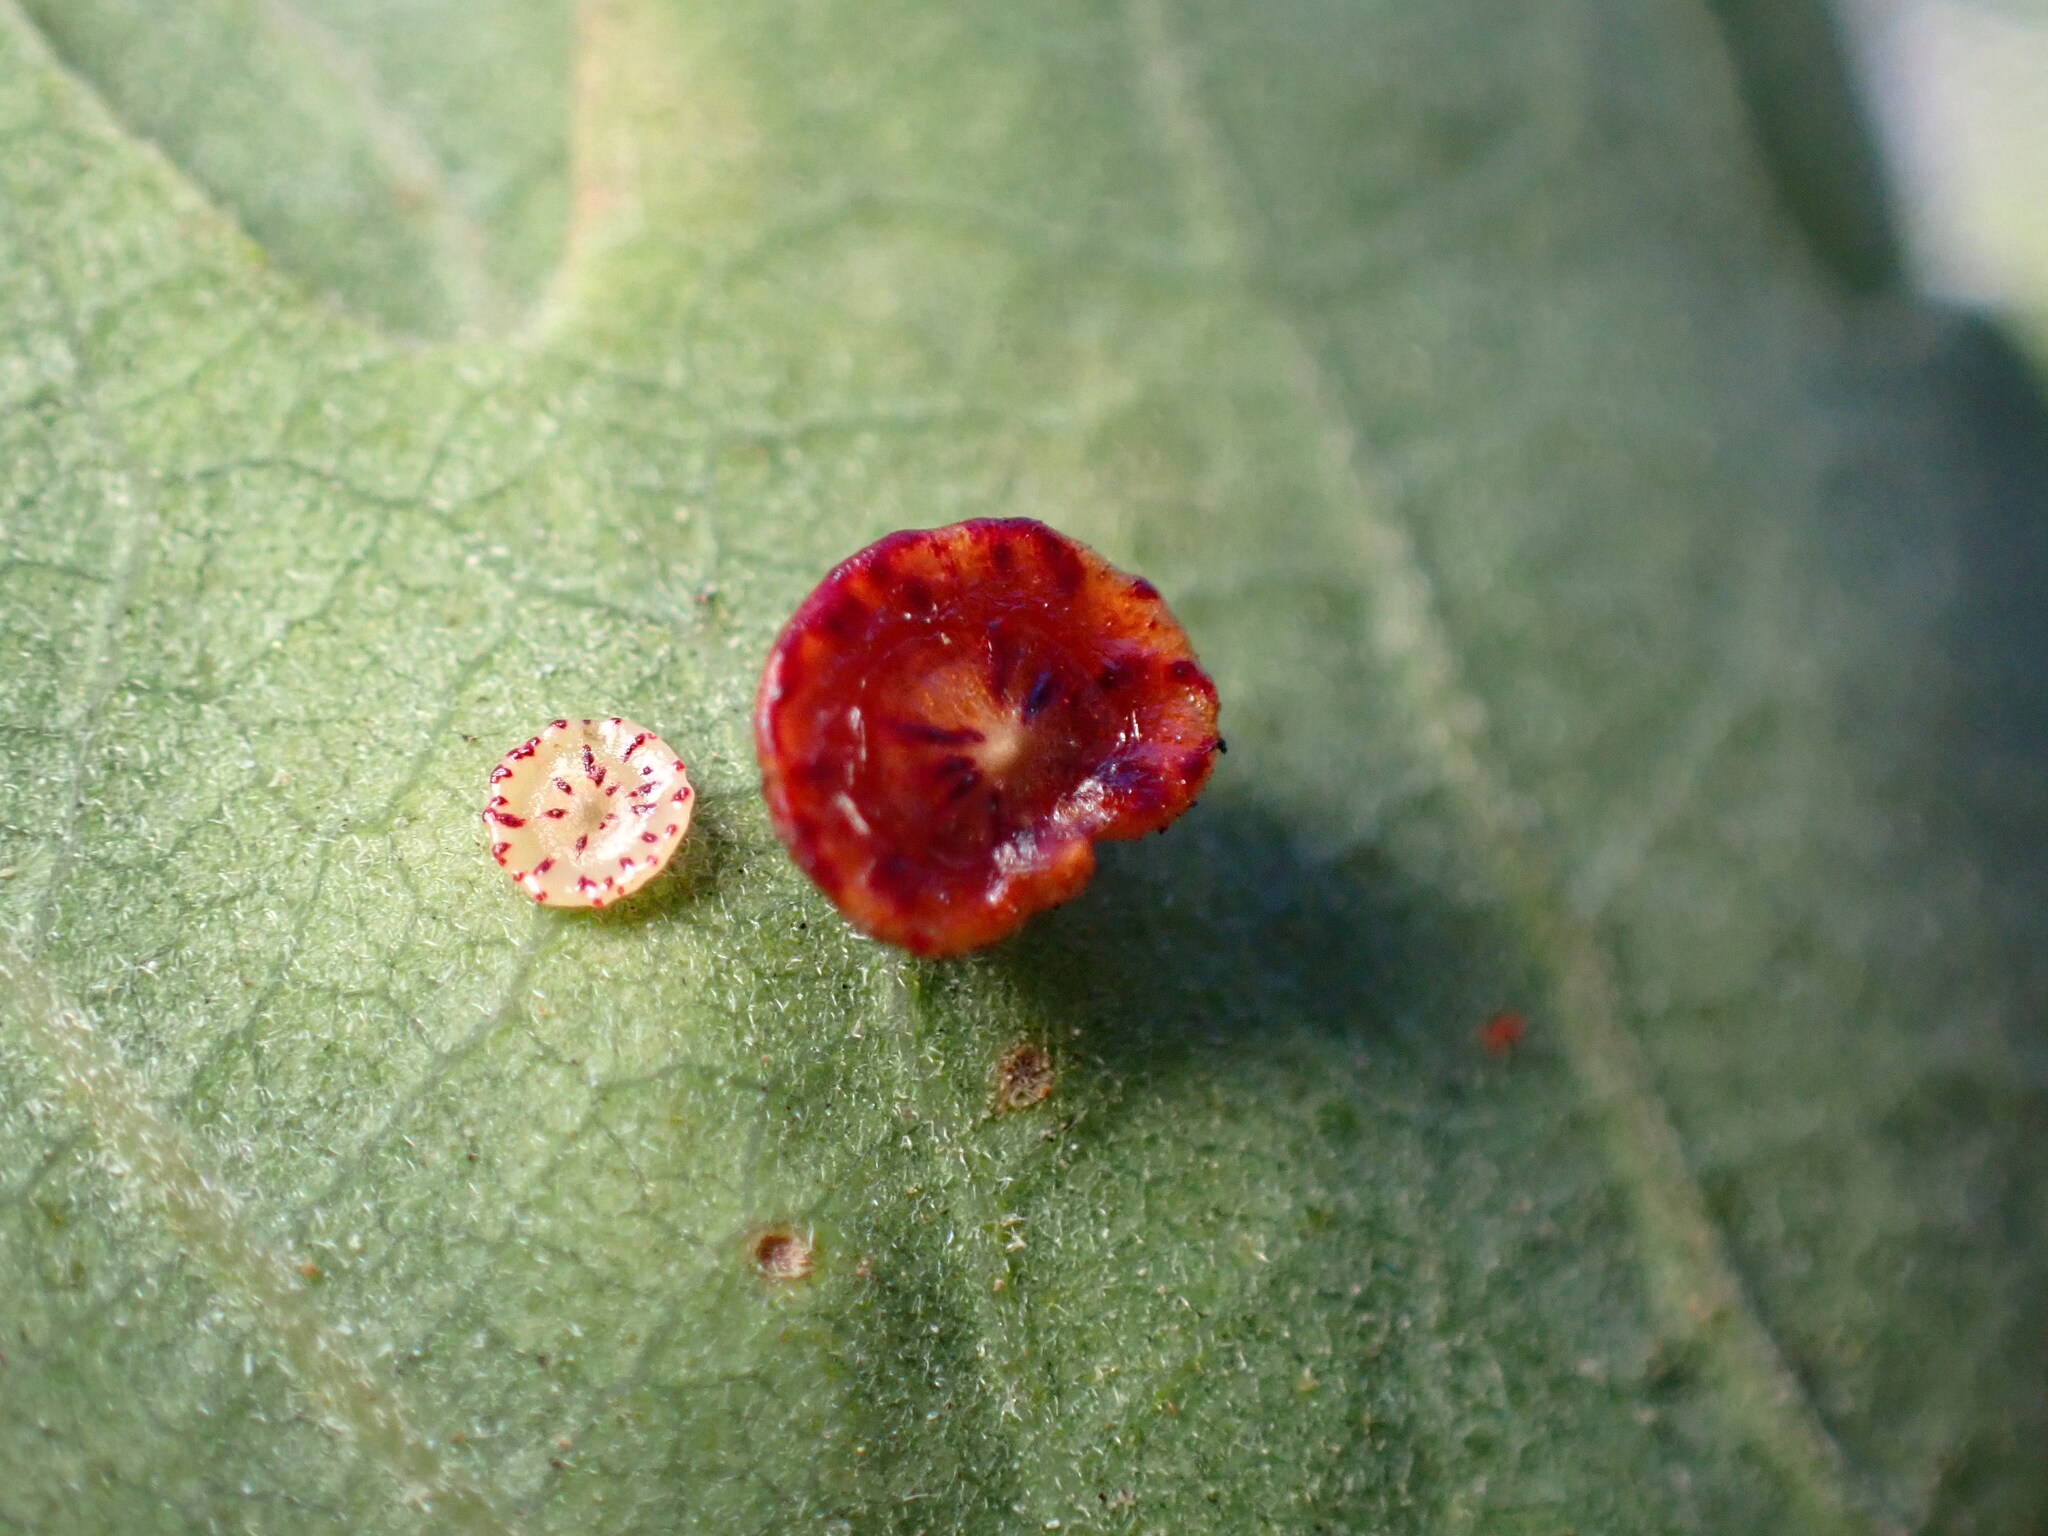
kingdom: Animalia
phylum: Arthropoda
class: Insecta
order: Hymenoptera
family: Cynipidae
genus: Andricus
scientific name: Andricus
